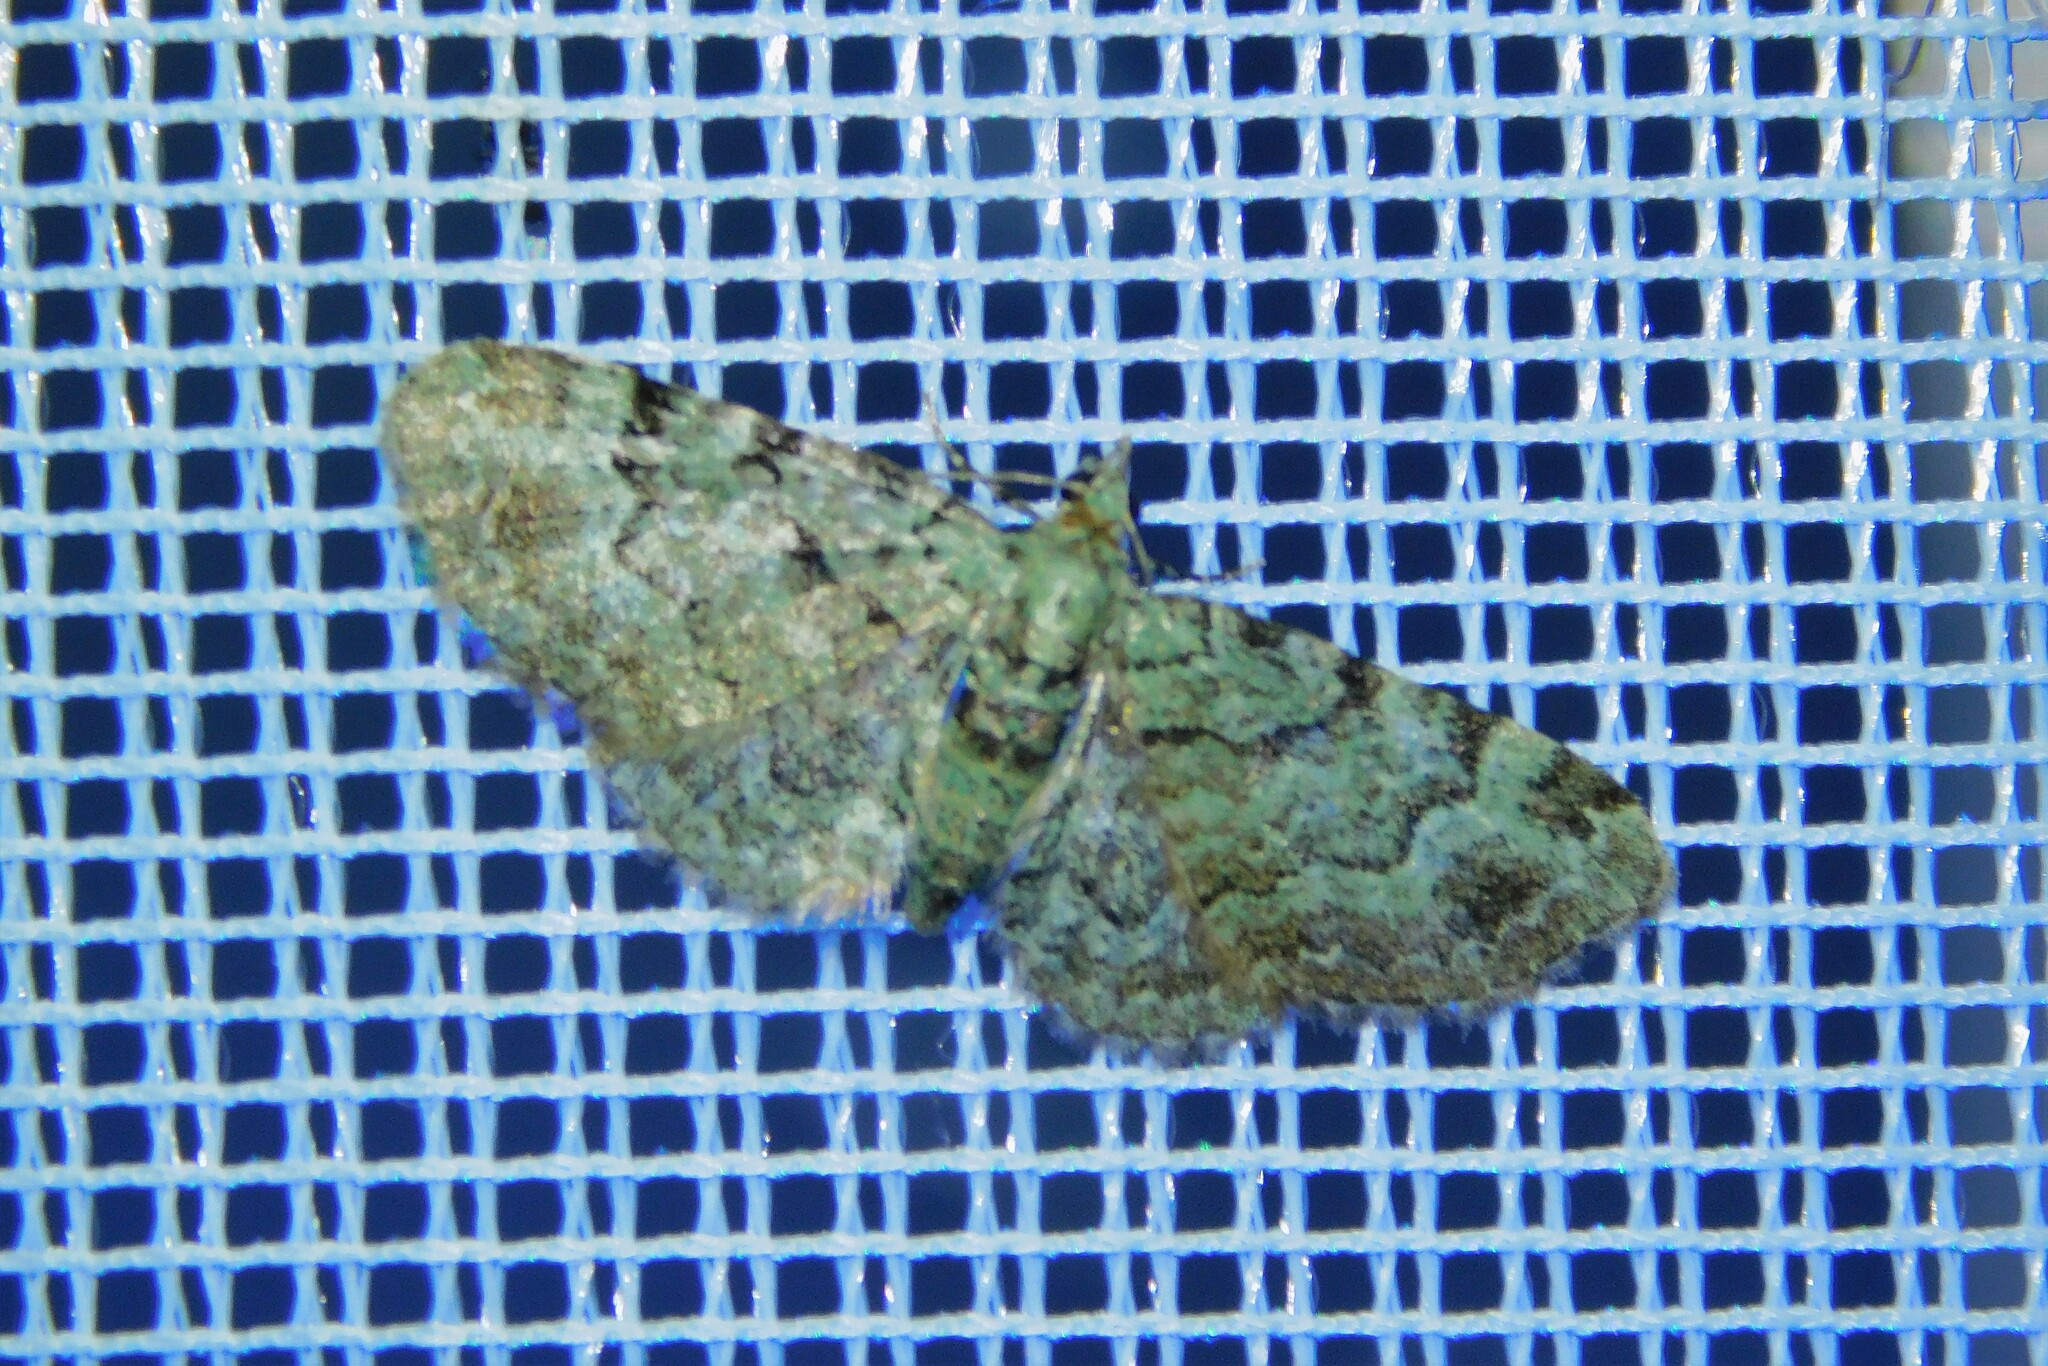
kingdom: Animalia
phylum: Arthropoda
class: Insecta
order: Lepidoptera
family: Geometridae
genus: Pasiphila
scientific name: Pasiphila rectangulata
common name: Green pug
